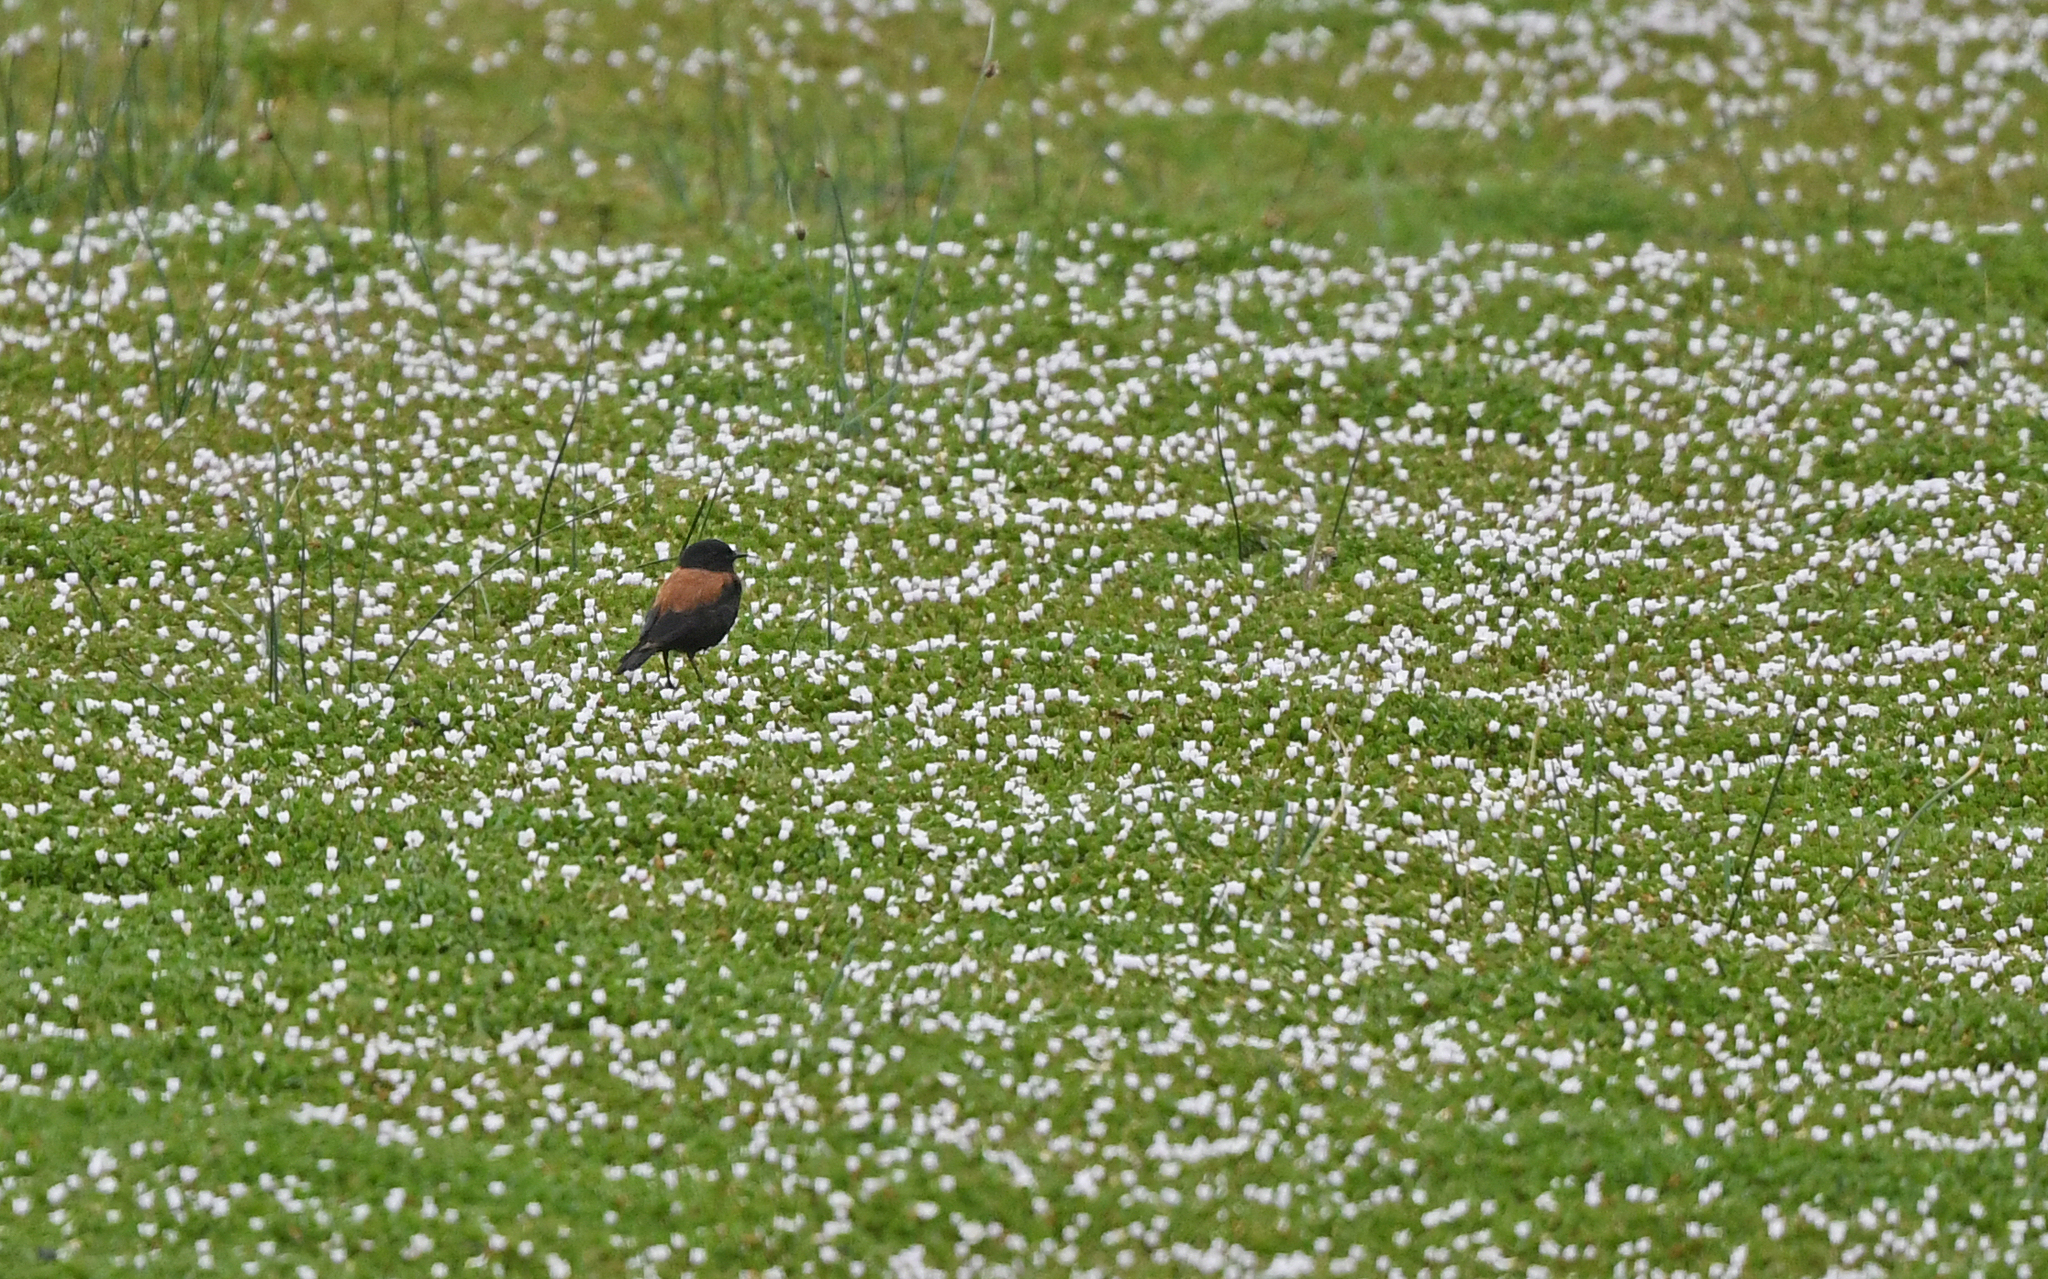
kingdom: Animalia
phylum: Chordata
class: Aves
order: Passeriformes
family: Tyrannidae
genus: Lessonia
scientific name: Lessonia rufa
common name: Austral negrito
